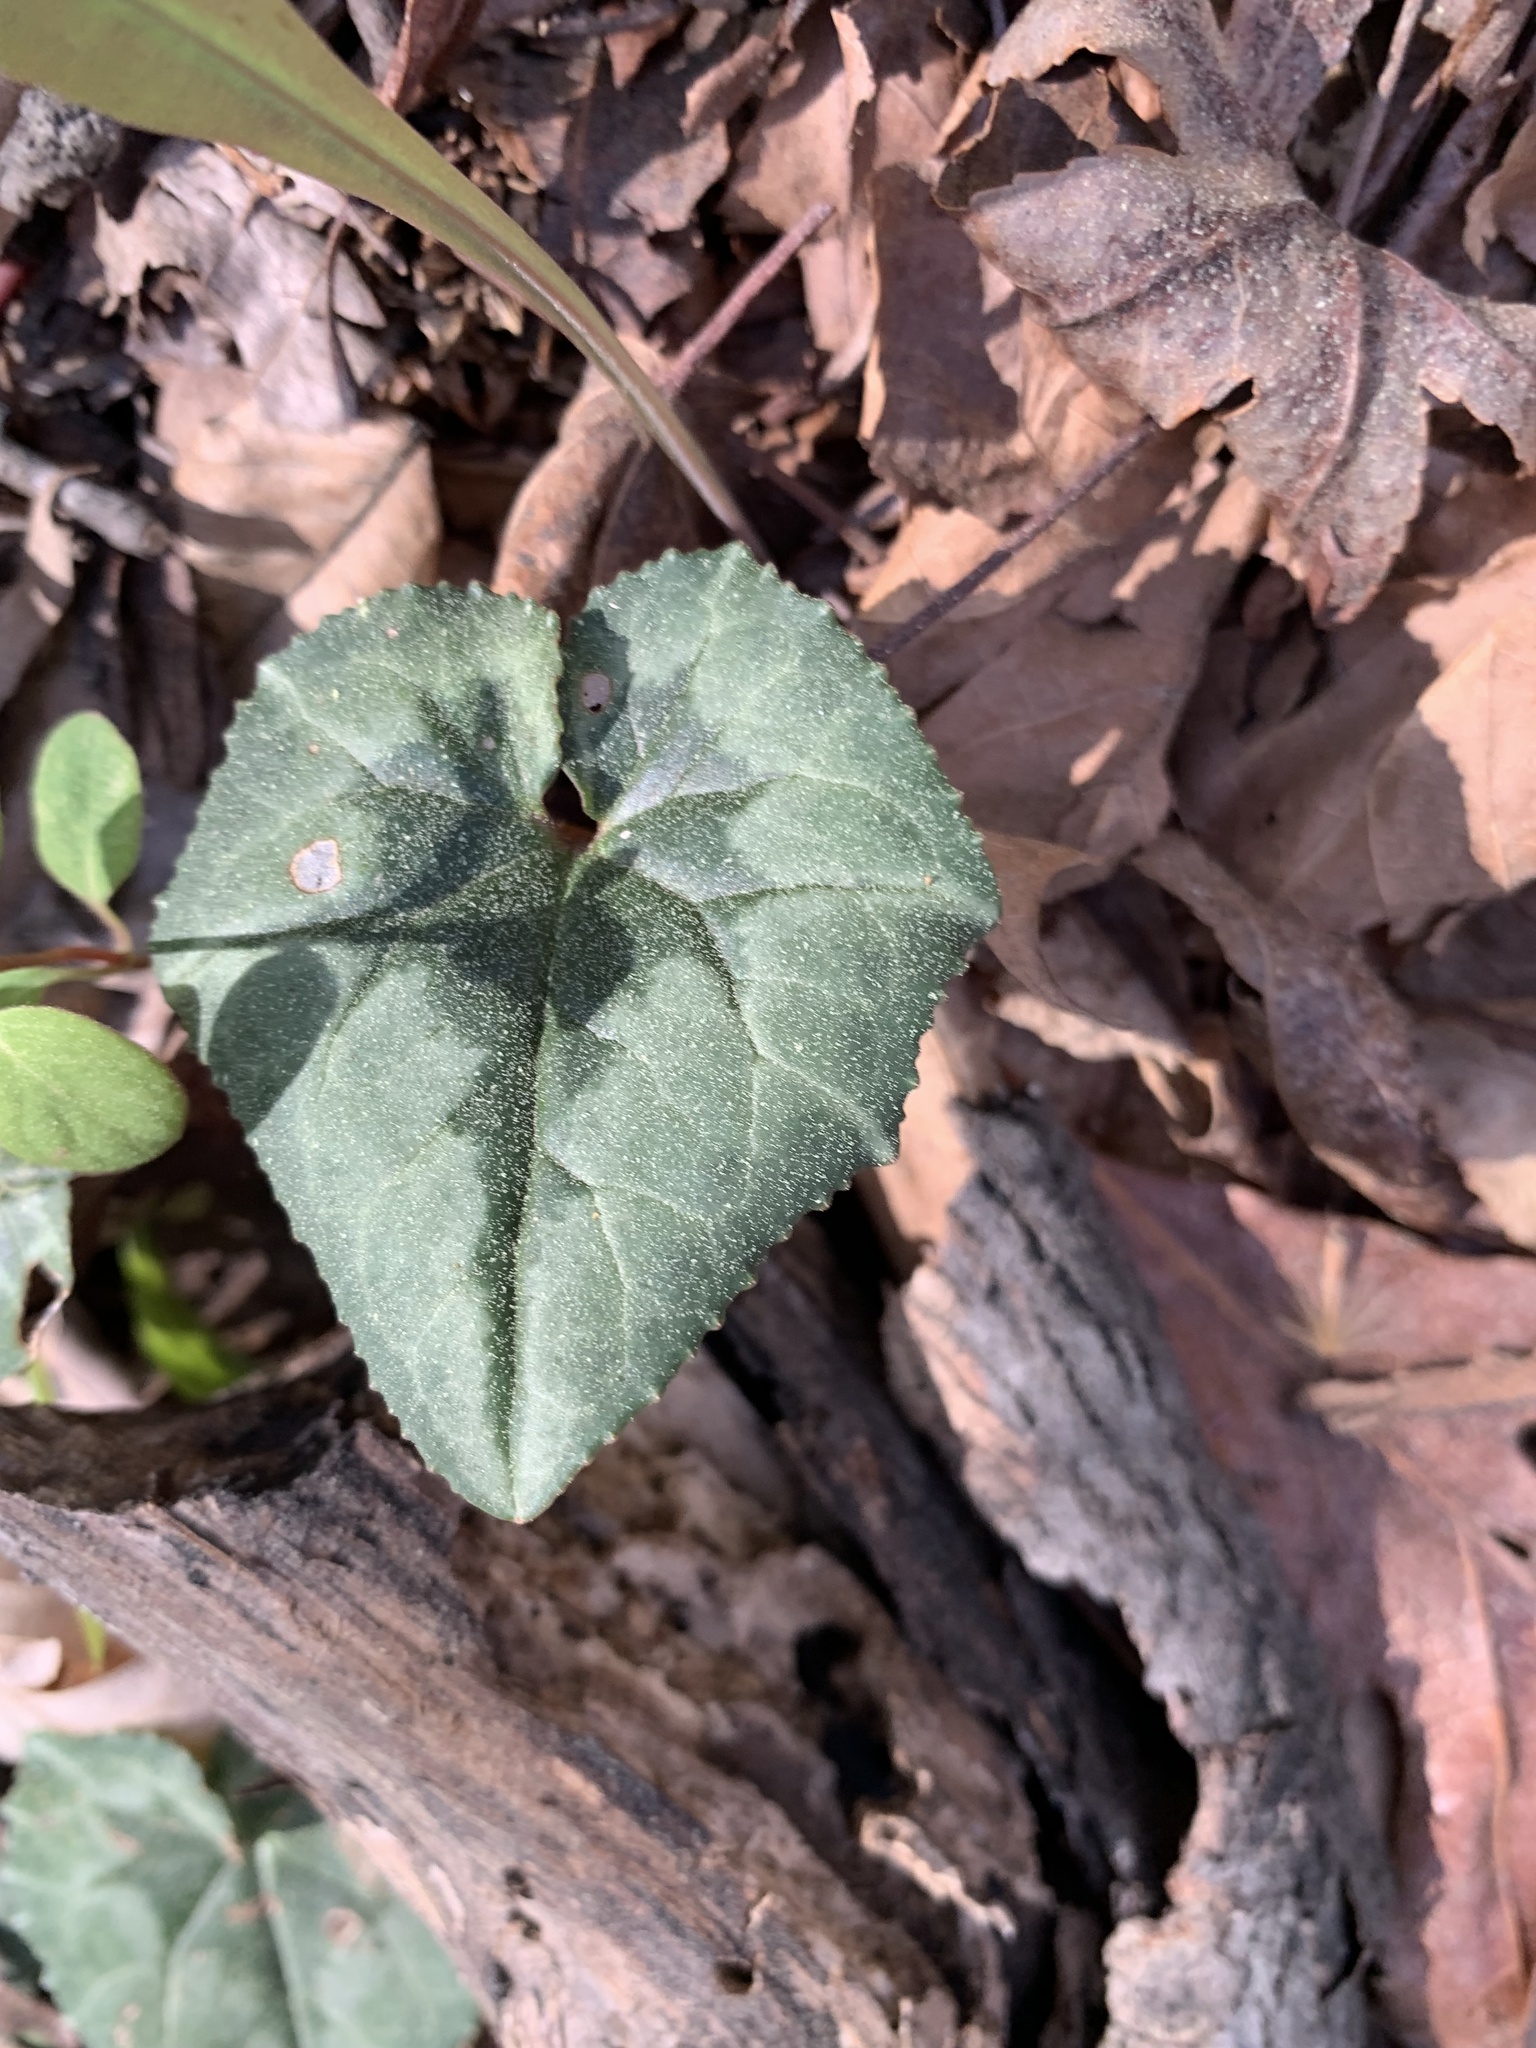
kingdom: Plantae
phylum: Tracheophyta
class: Magnoliopsida
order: Ericales
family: Primulaceae
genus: Cyclamen
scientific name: Cyclamen hederifolium
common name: Sowbread
